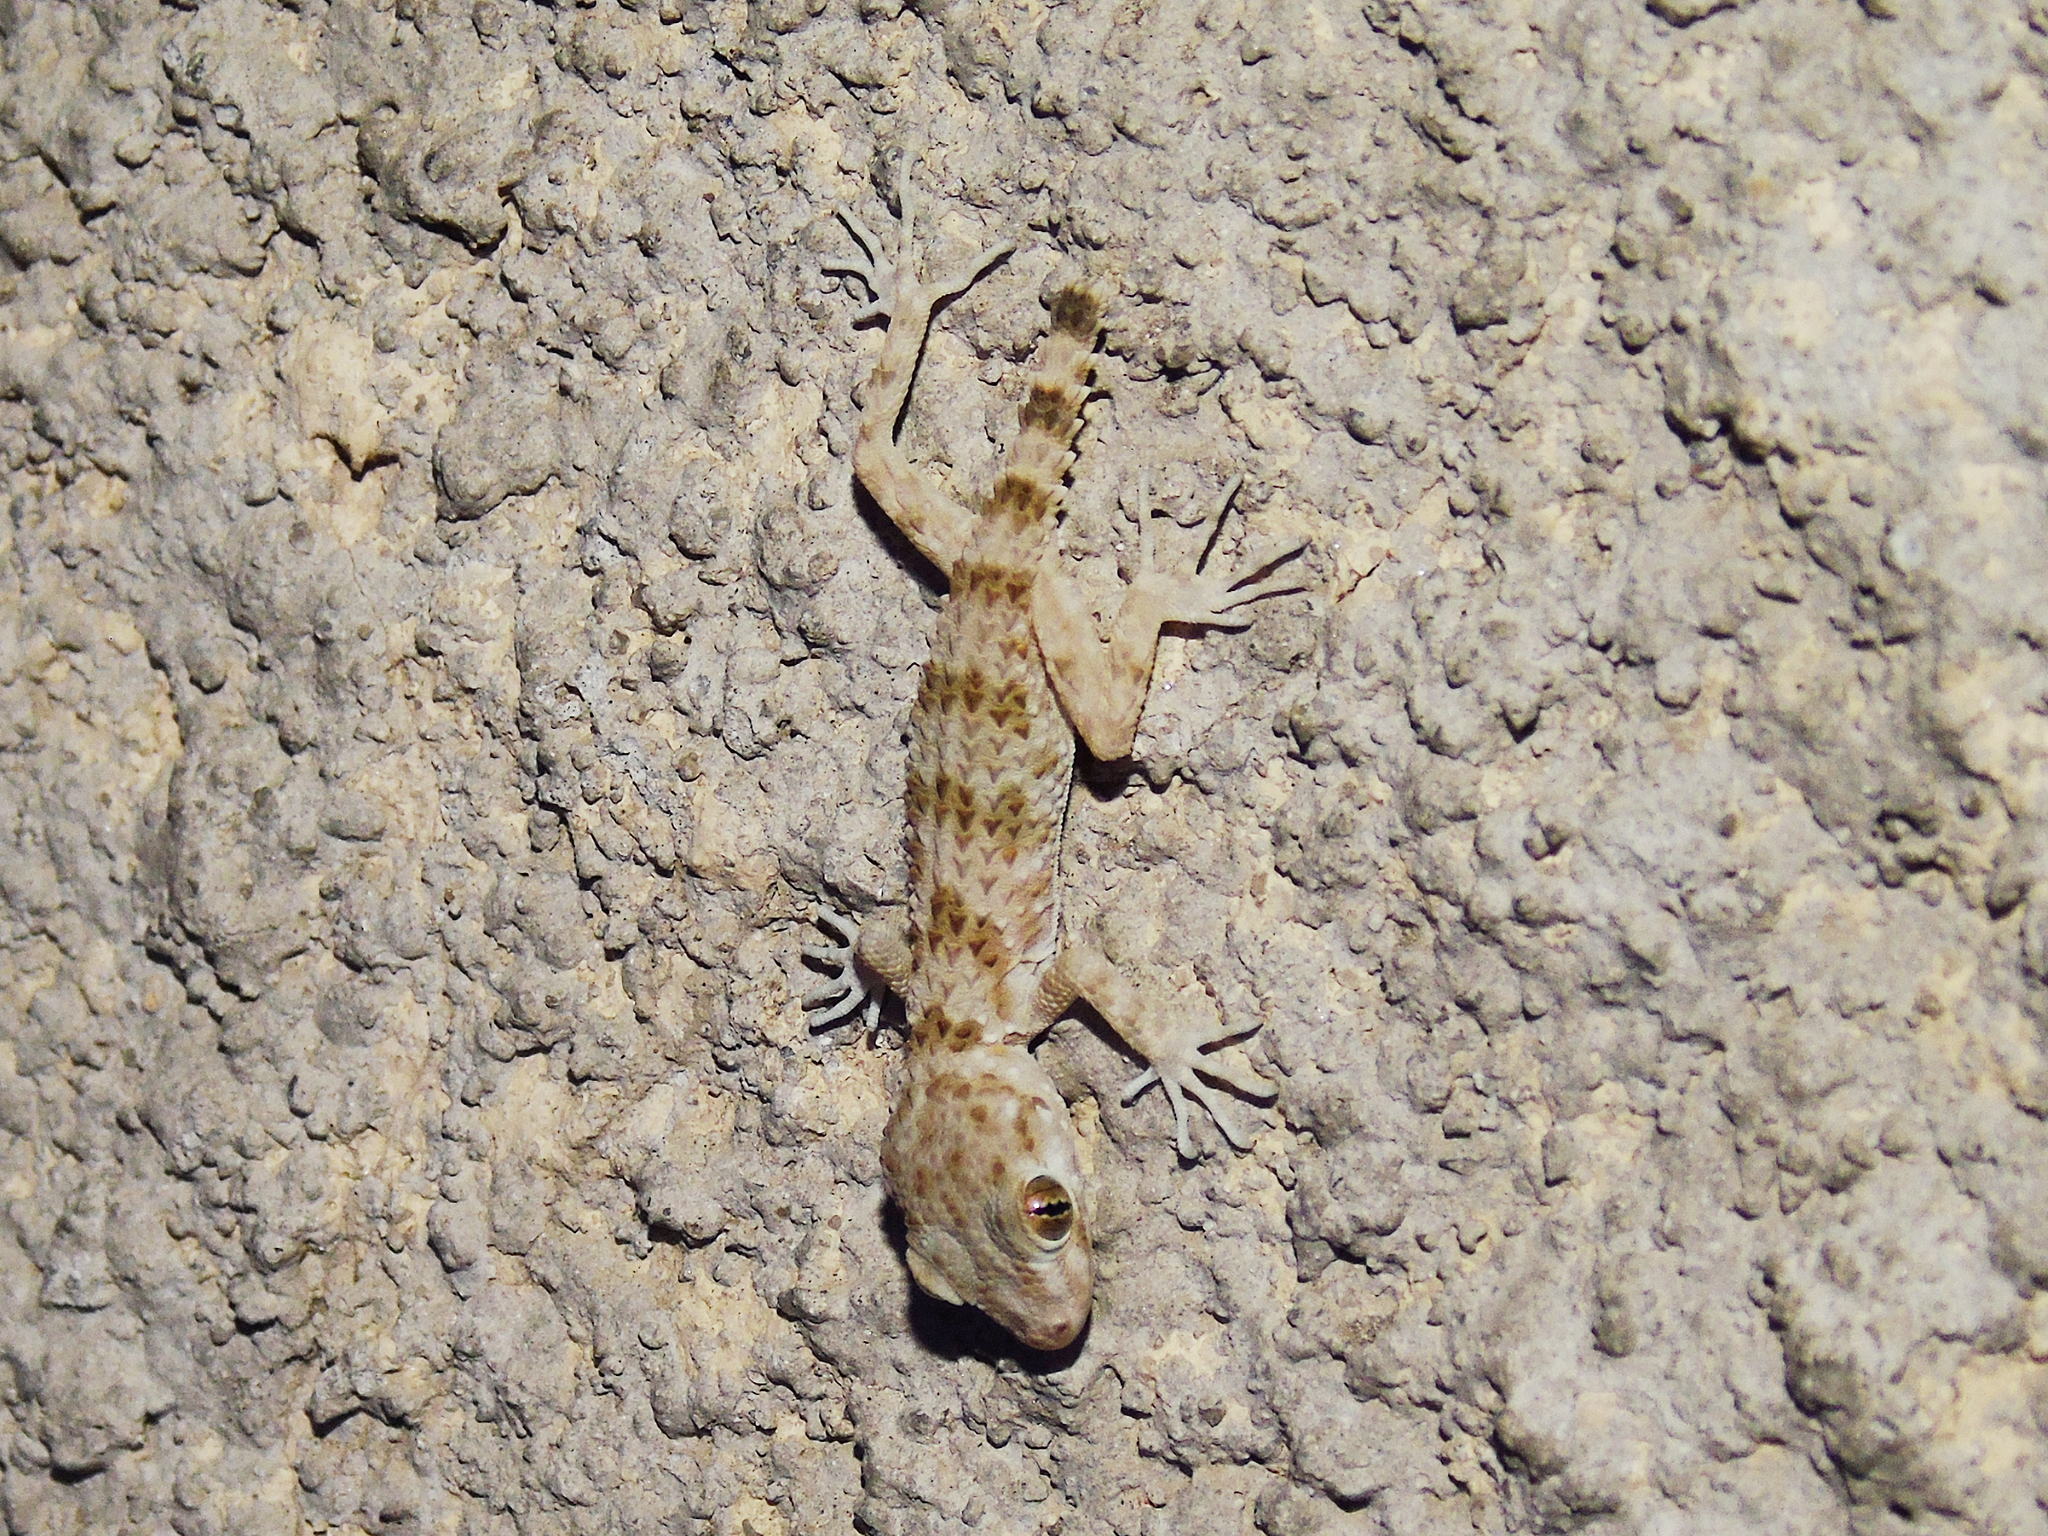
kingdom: Animalia
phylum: Chordata
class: Squamata
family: Gekkonidae
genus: Tenuidactylus
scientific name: Tenuidactylus caspius
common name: Caspian bent-toed gecko
